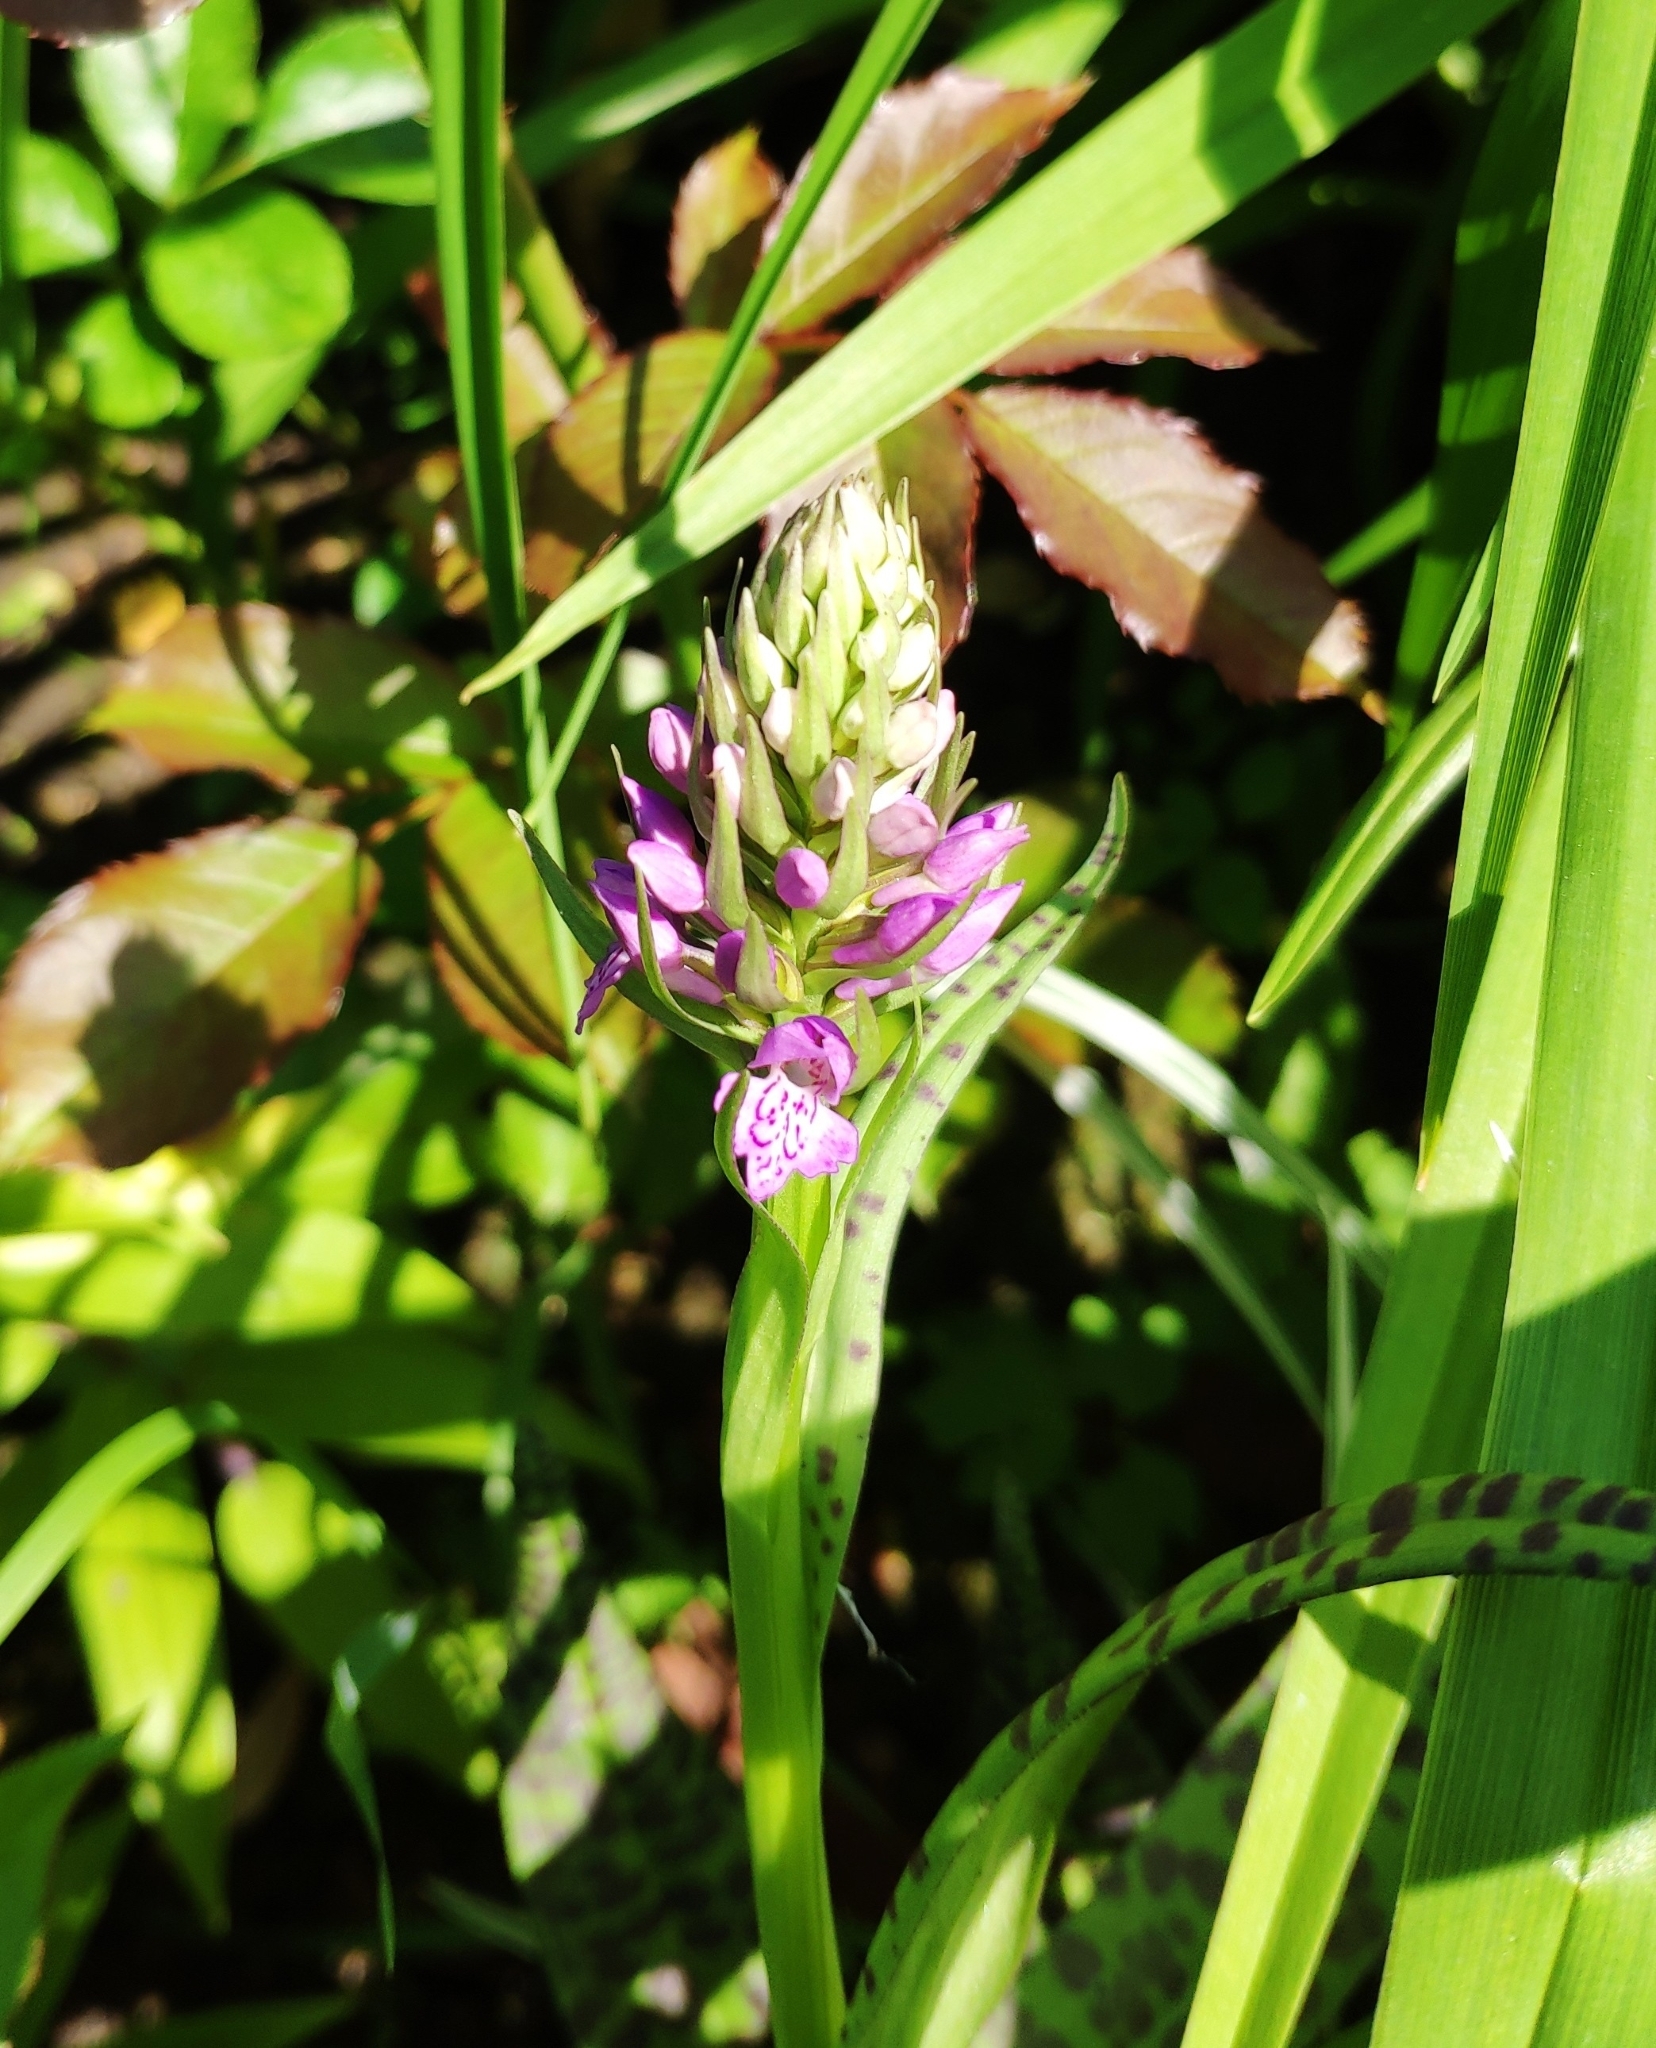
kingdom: Plantae
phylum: Tracheophyta
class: Liliopsida
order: Asparagales
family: Orchidaceae
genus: Dactylorhiza
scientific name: Dactylorhiza majalis
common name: Marsh orchid
